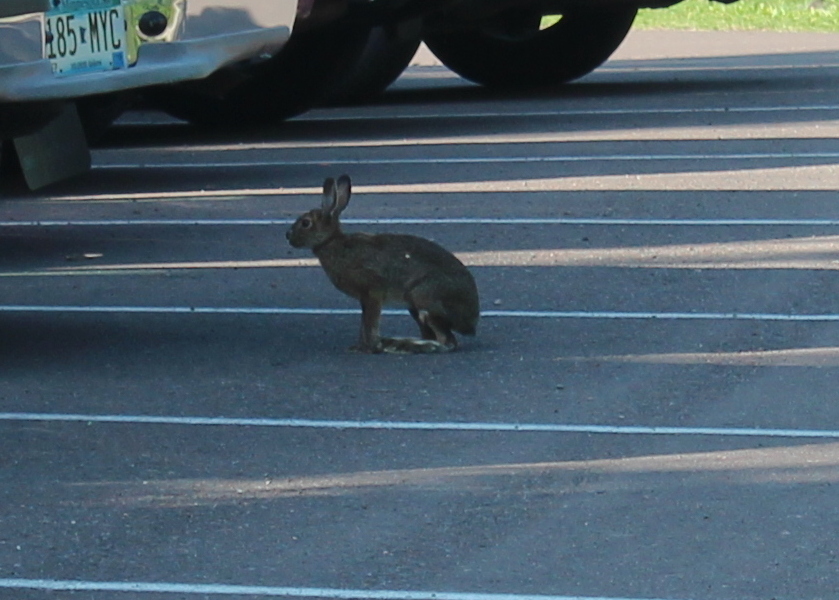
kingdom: Animalia
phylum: Chordata
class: Mammalia
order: Lagomorpha
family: Leporidae
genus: Lepus
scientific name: Lepus americanus
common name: Snowshoe hare
